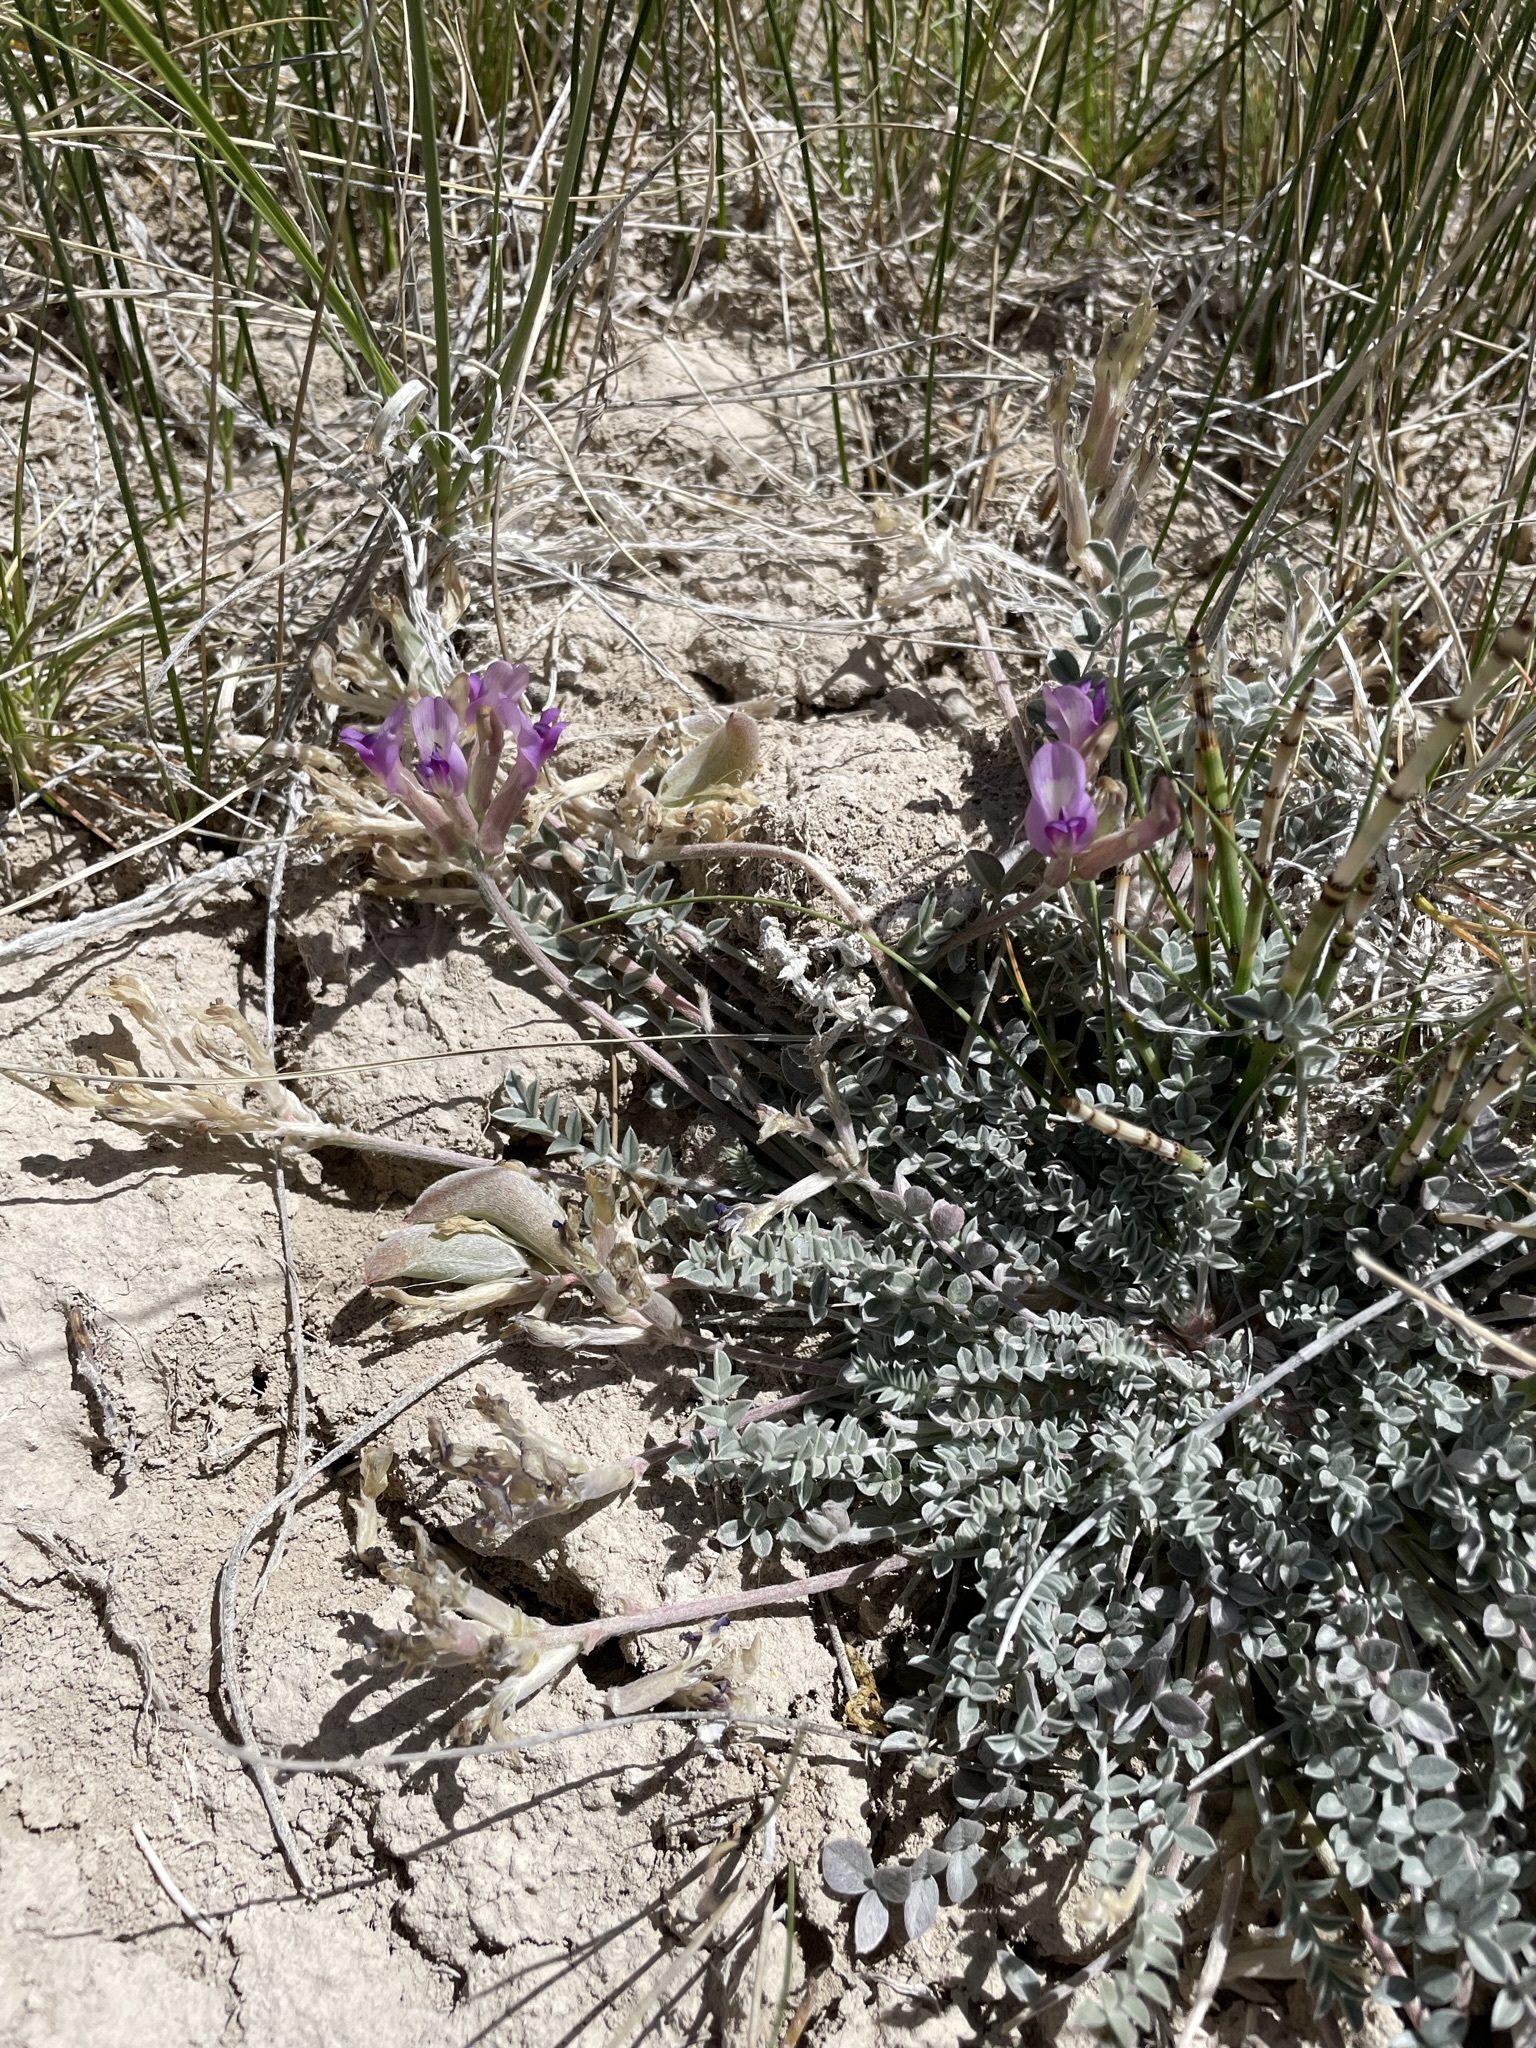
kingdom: Plantae
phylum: Tracheophyta
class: Magnoliopsida
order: Fabales
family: Fabaceae
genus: Astragalus
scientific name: Astragalus argophyllus
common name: Silverleaf milk-vetch
